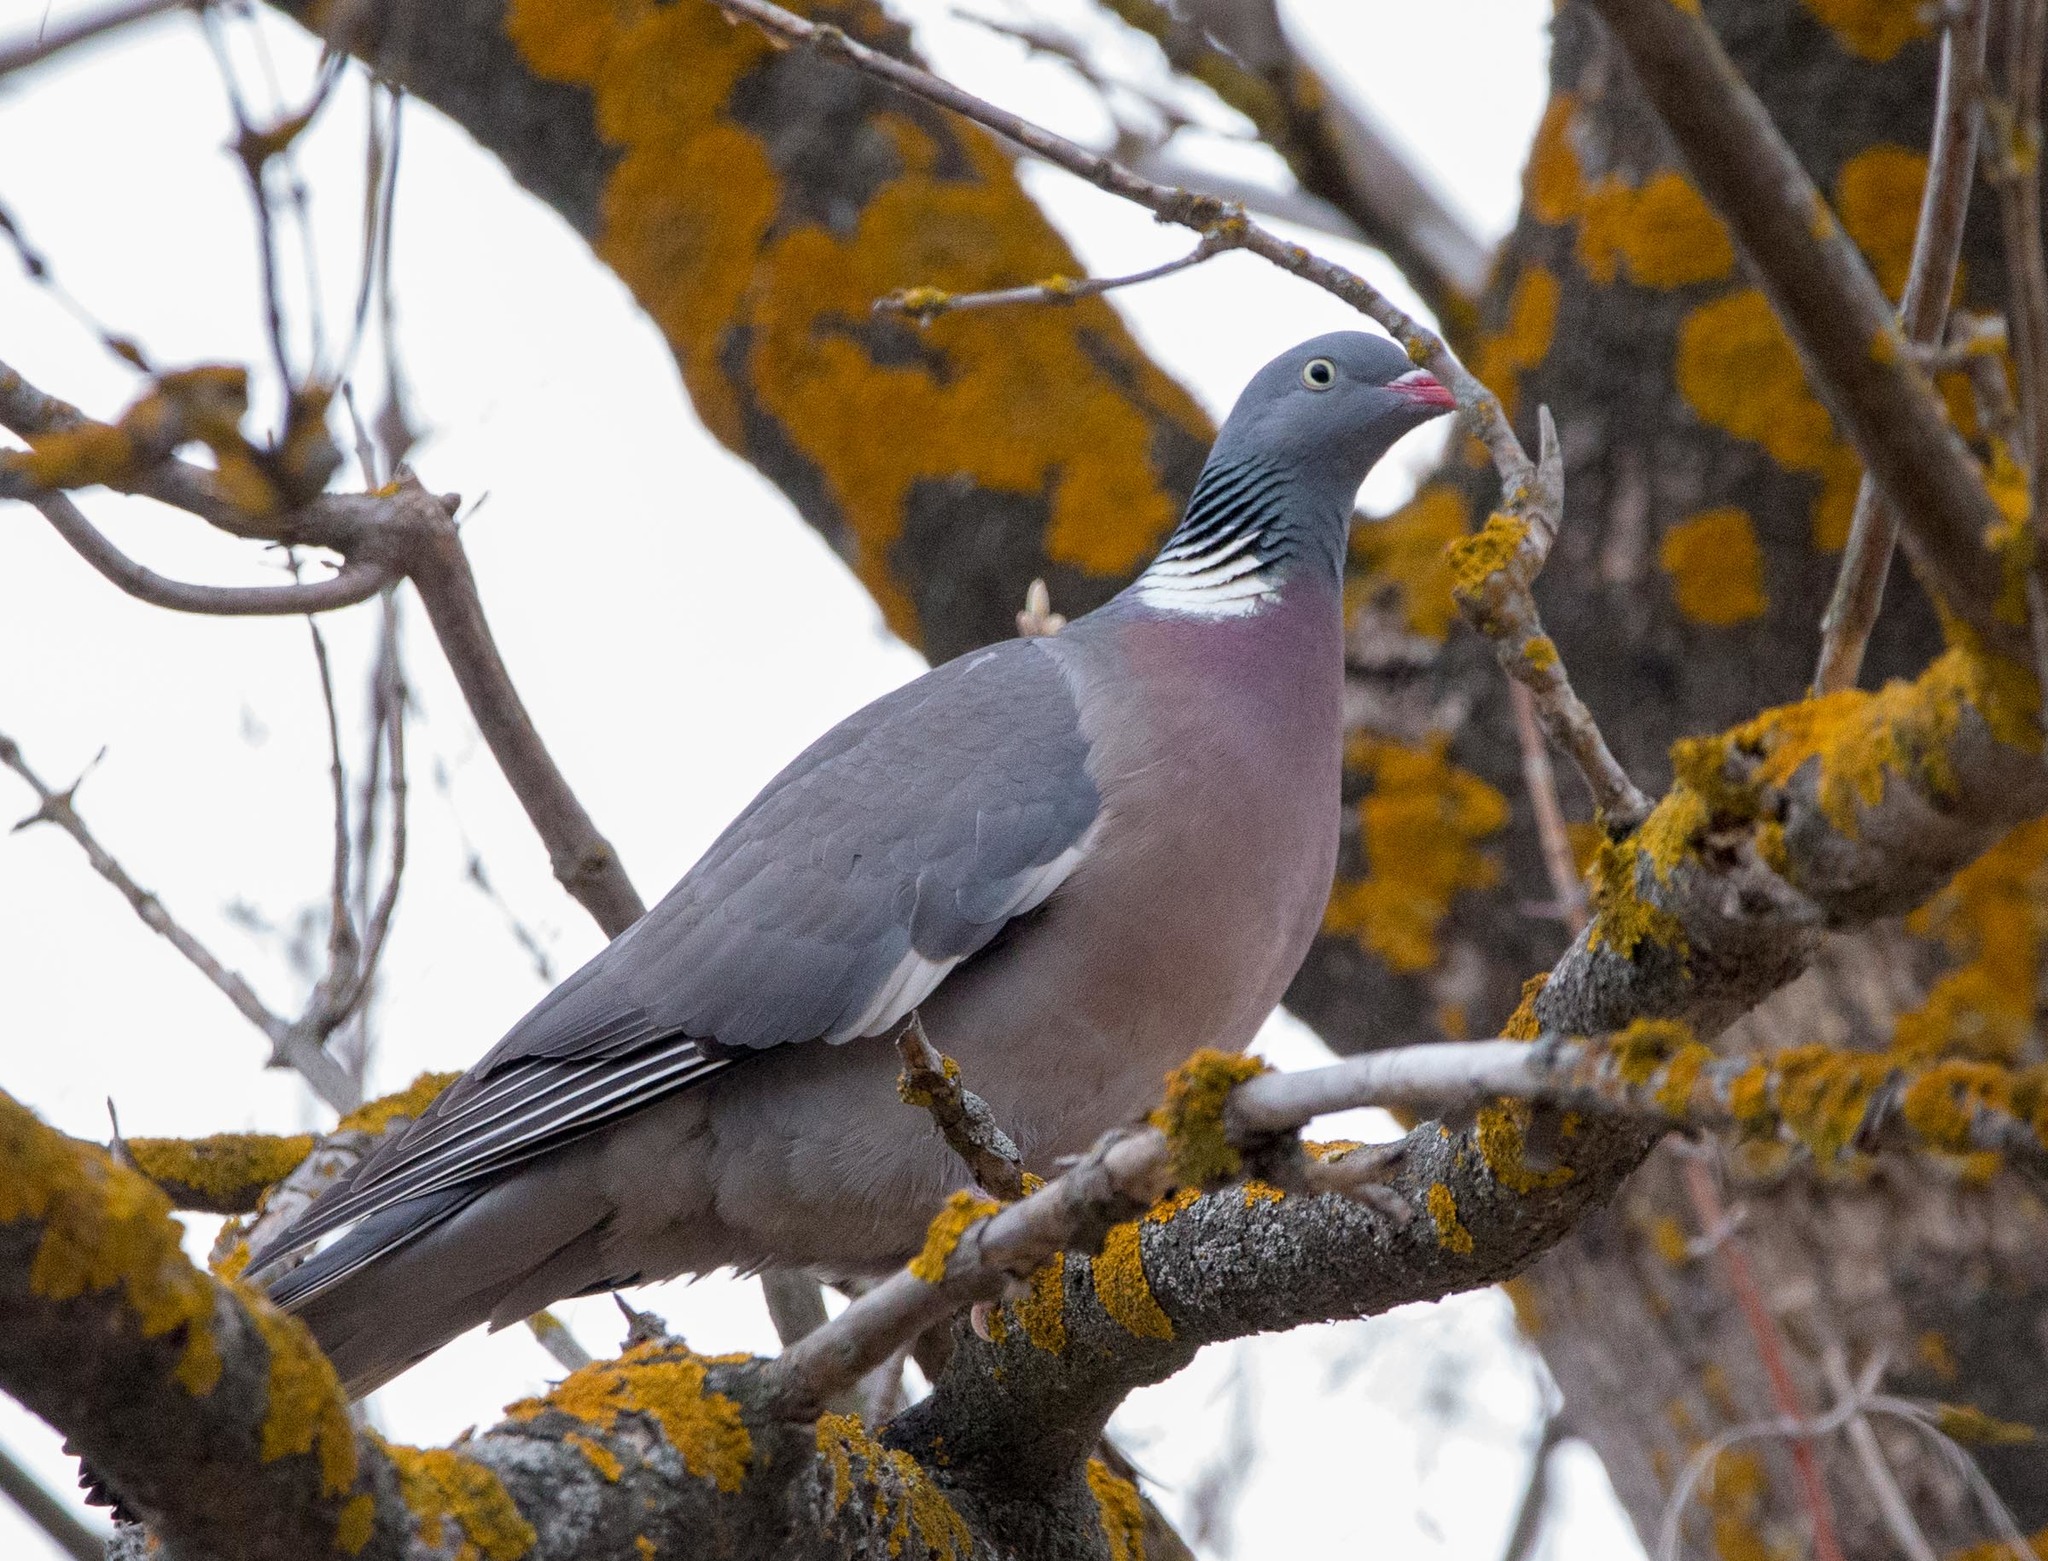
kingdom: Animalia
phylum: Chordata
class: Aves
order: Columbiformes
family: Columbidae
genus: Columba
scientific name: Columba palumbus
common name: Common wood pigeon
